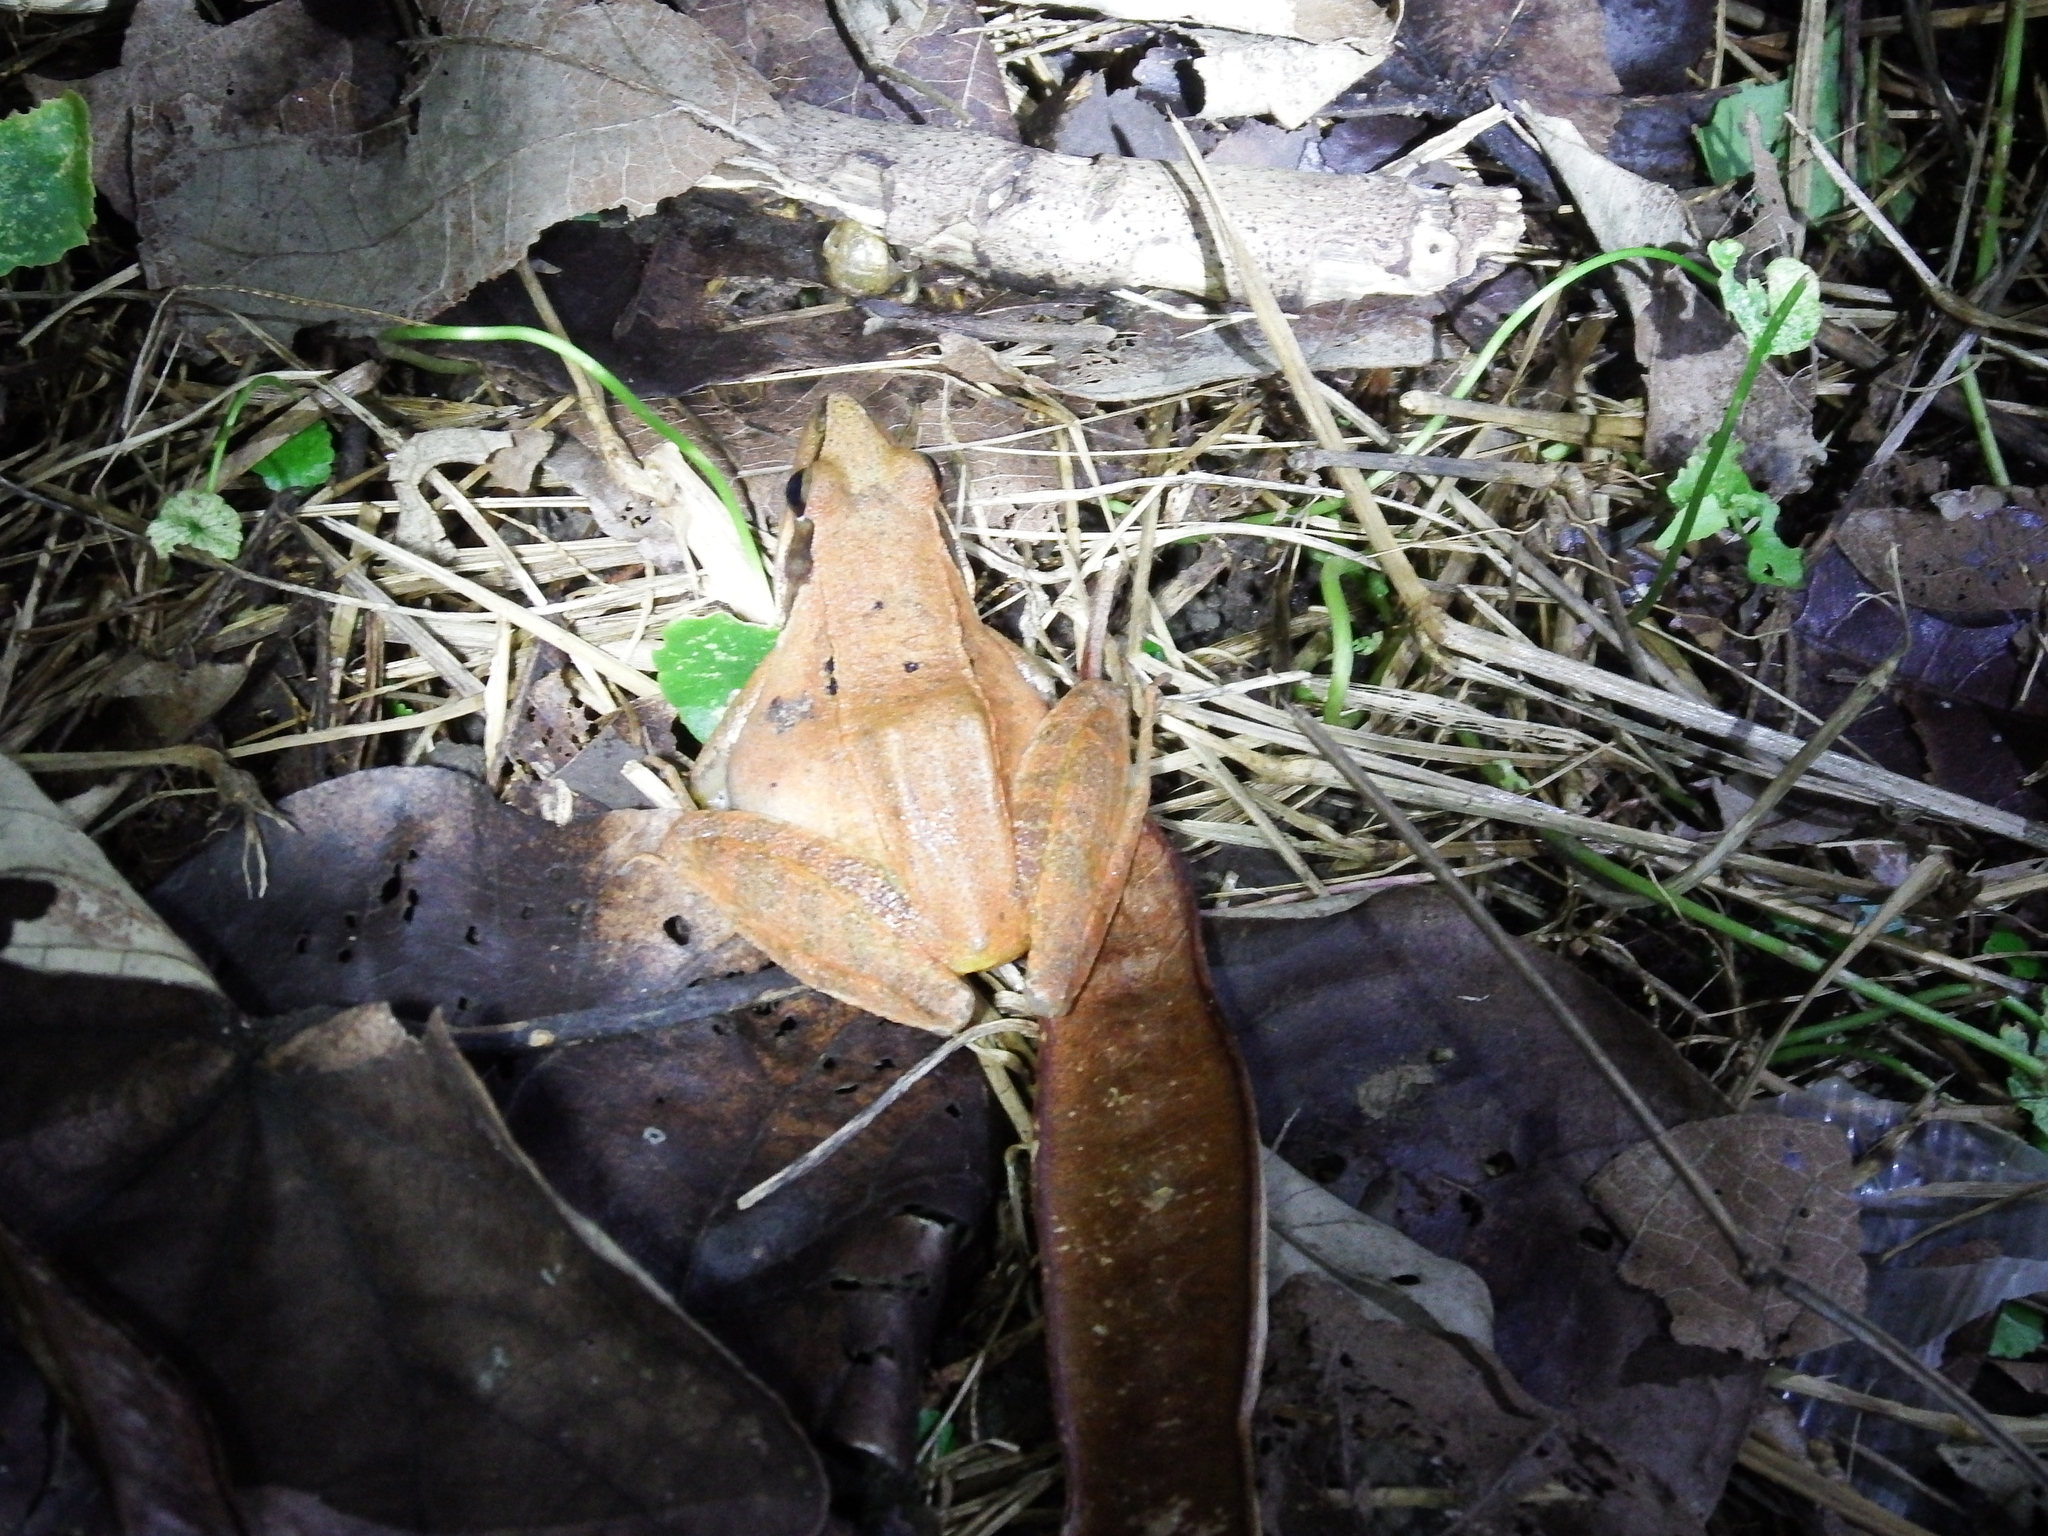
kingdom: Animalia
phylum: Chordata
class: Amphibia
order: Anura
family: Ranidae
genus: Rana
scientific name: Rana longicrus
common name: Long-legged brown frog
